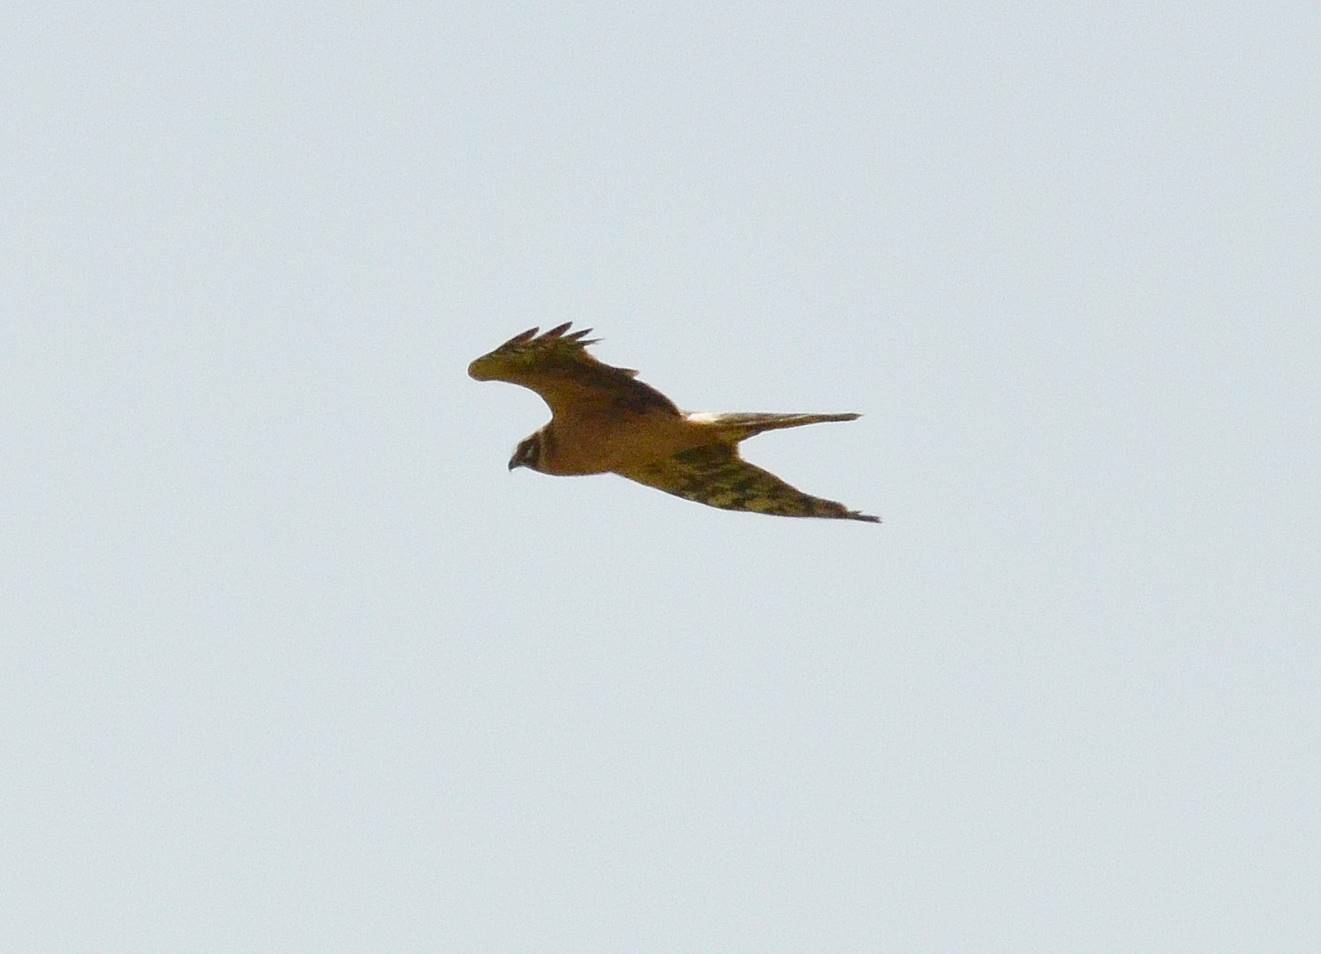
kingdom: Animalia
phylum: Chordata
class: Aves
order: Accipitriformes
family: Accipitridae
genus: Circus
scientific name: Circus macrourus
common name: Pallid harrier
